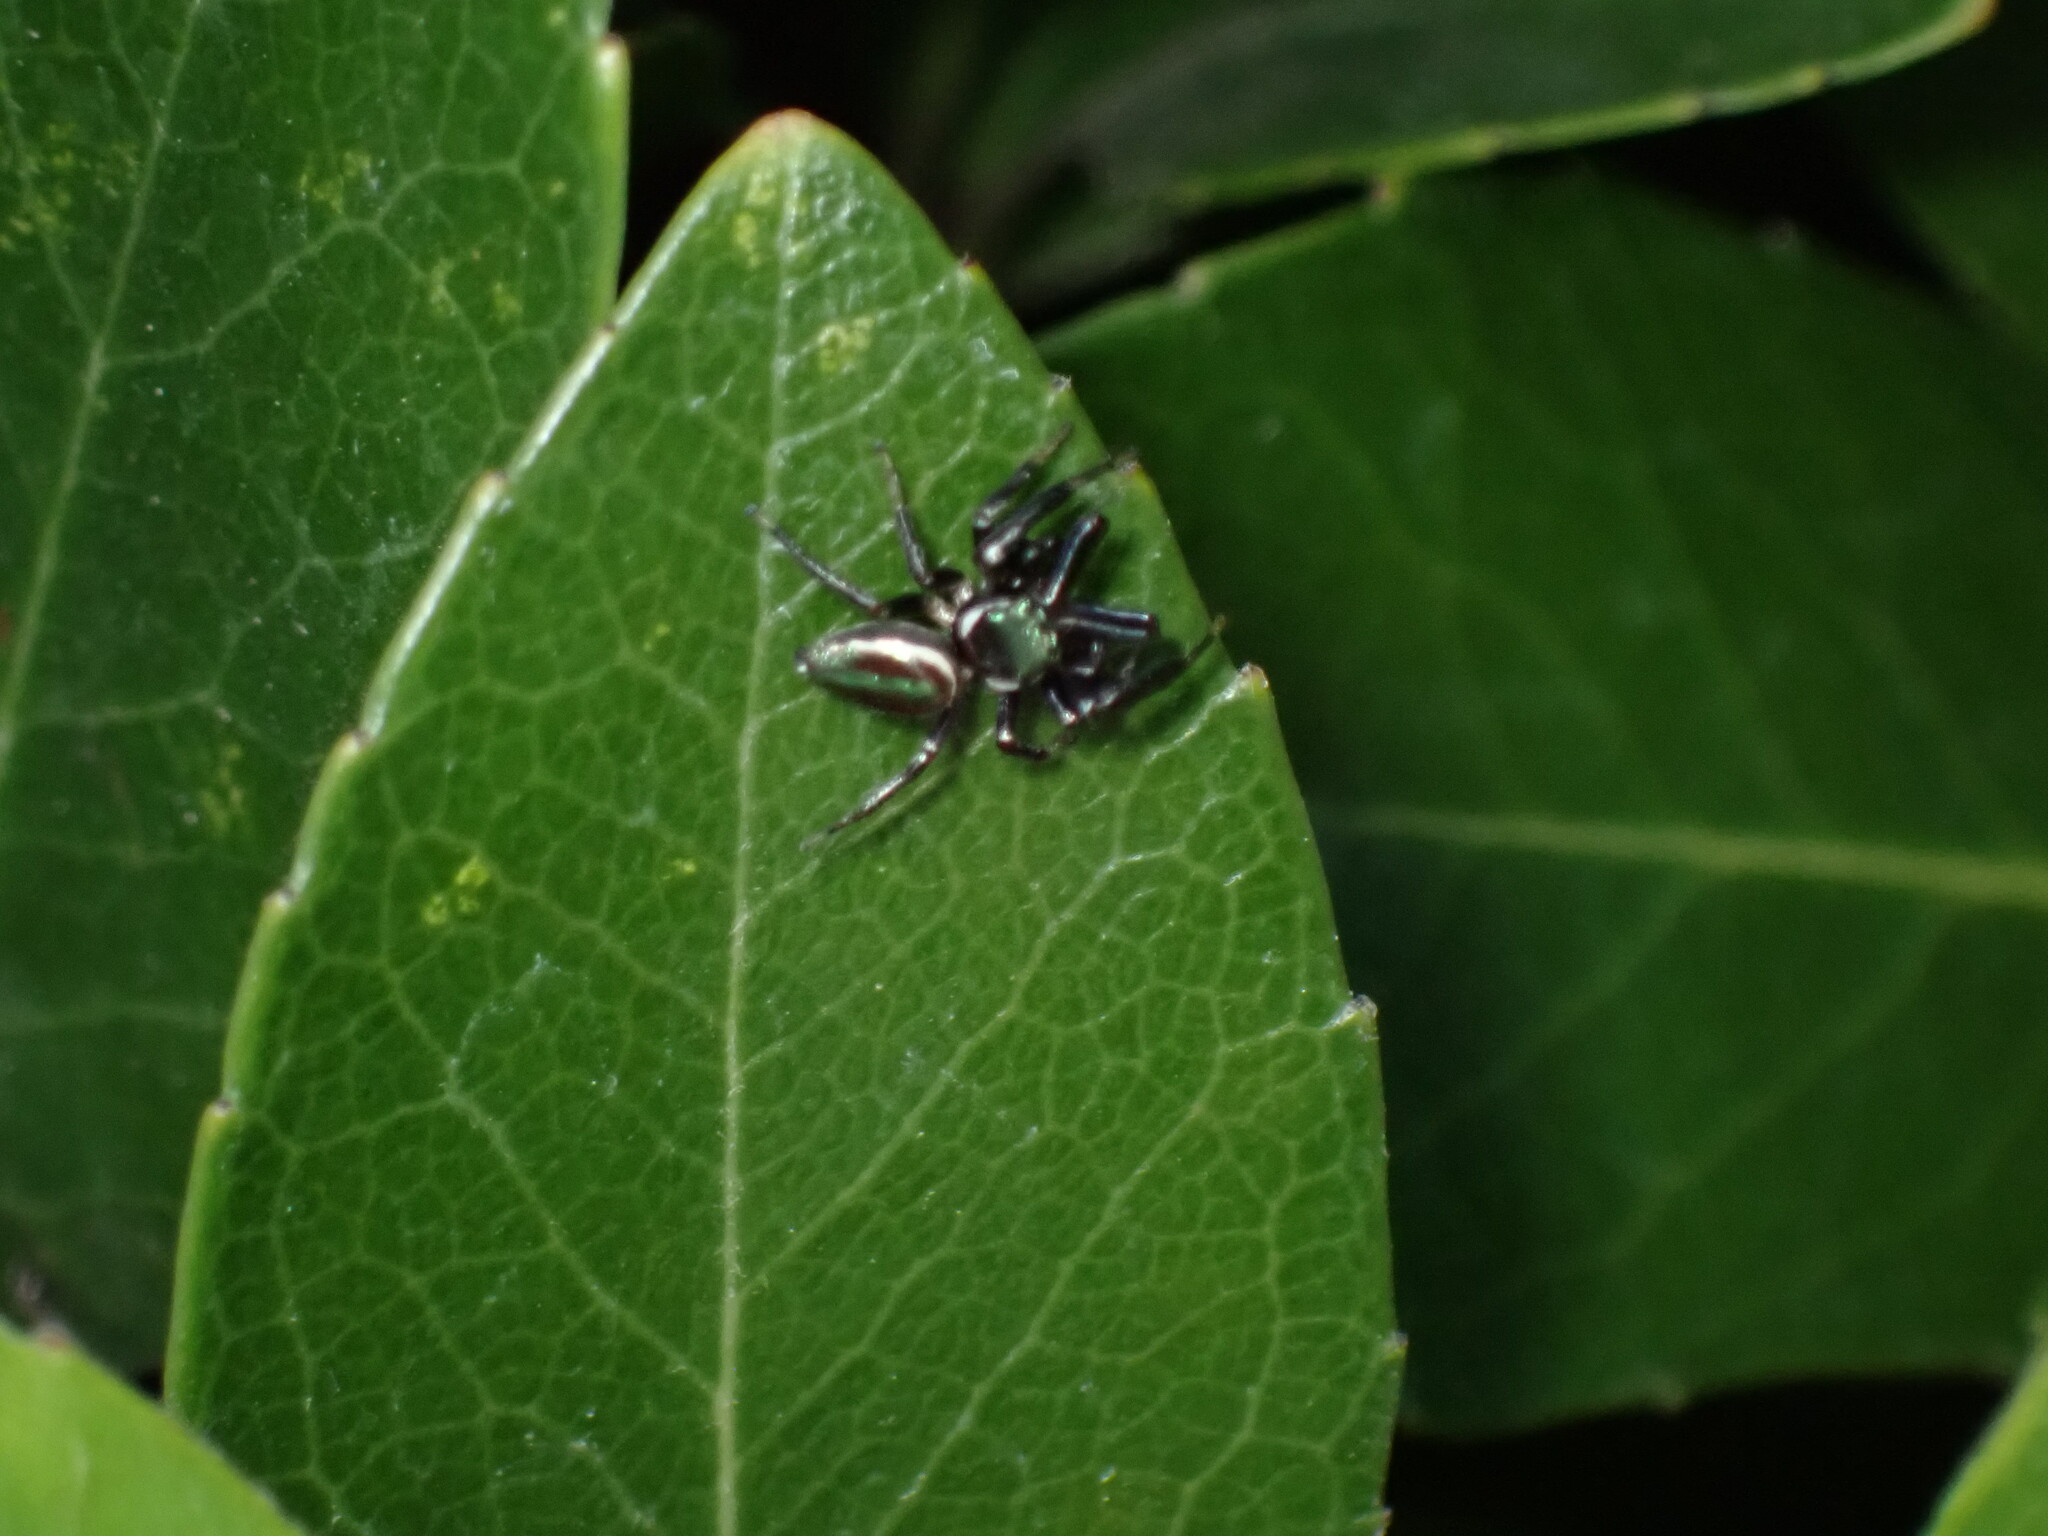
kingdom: Animalia
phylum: Arthropoda
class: Arachnida
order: Araneae
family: Salticidae
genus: Messua
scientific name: Messua limbata
